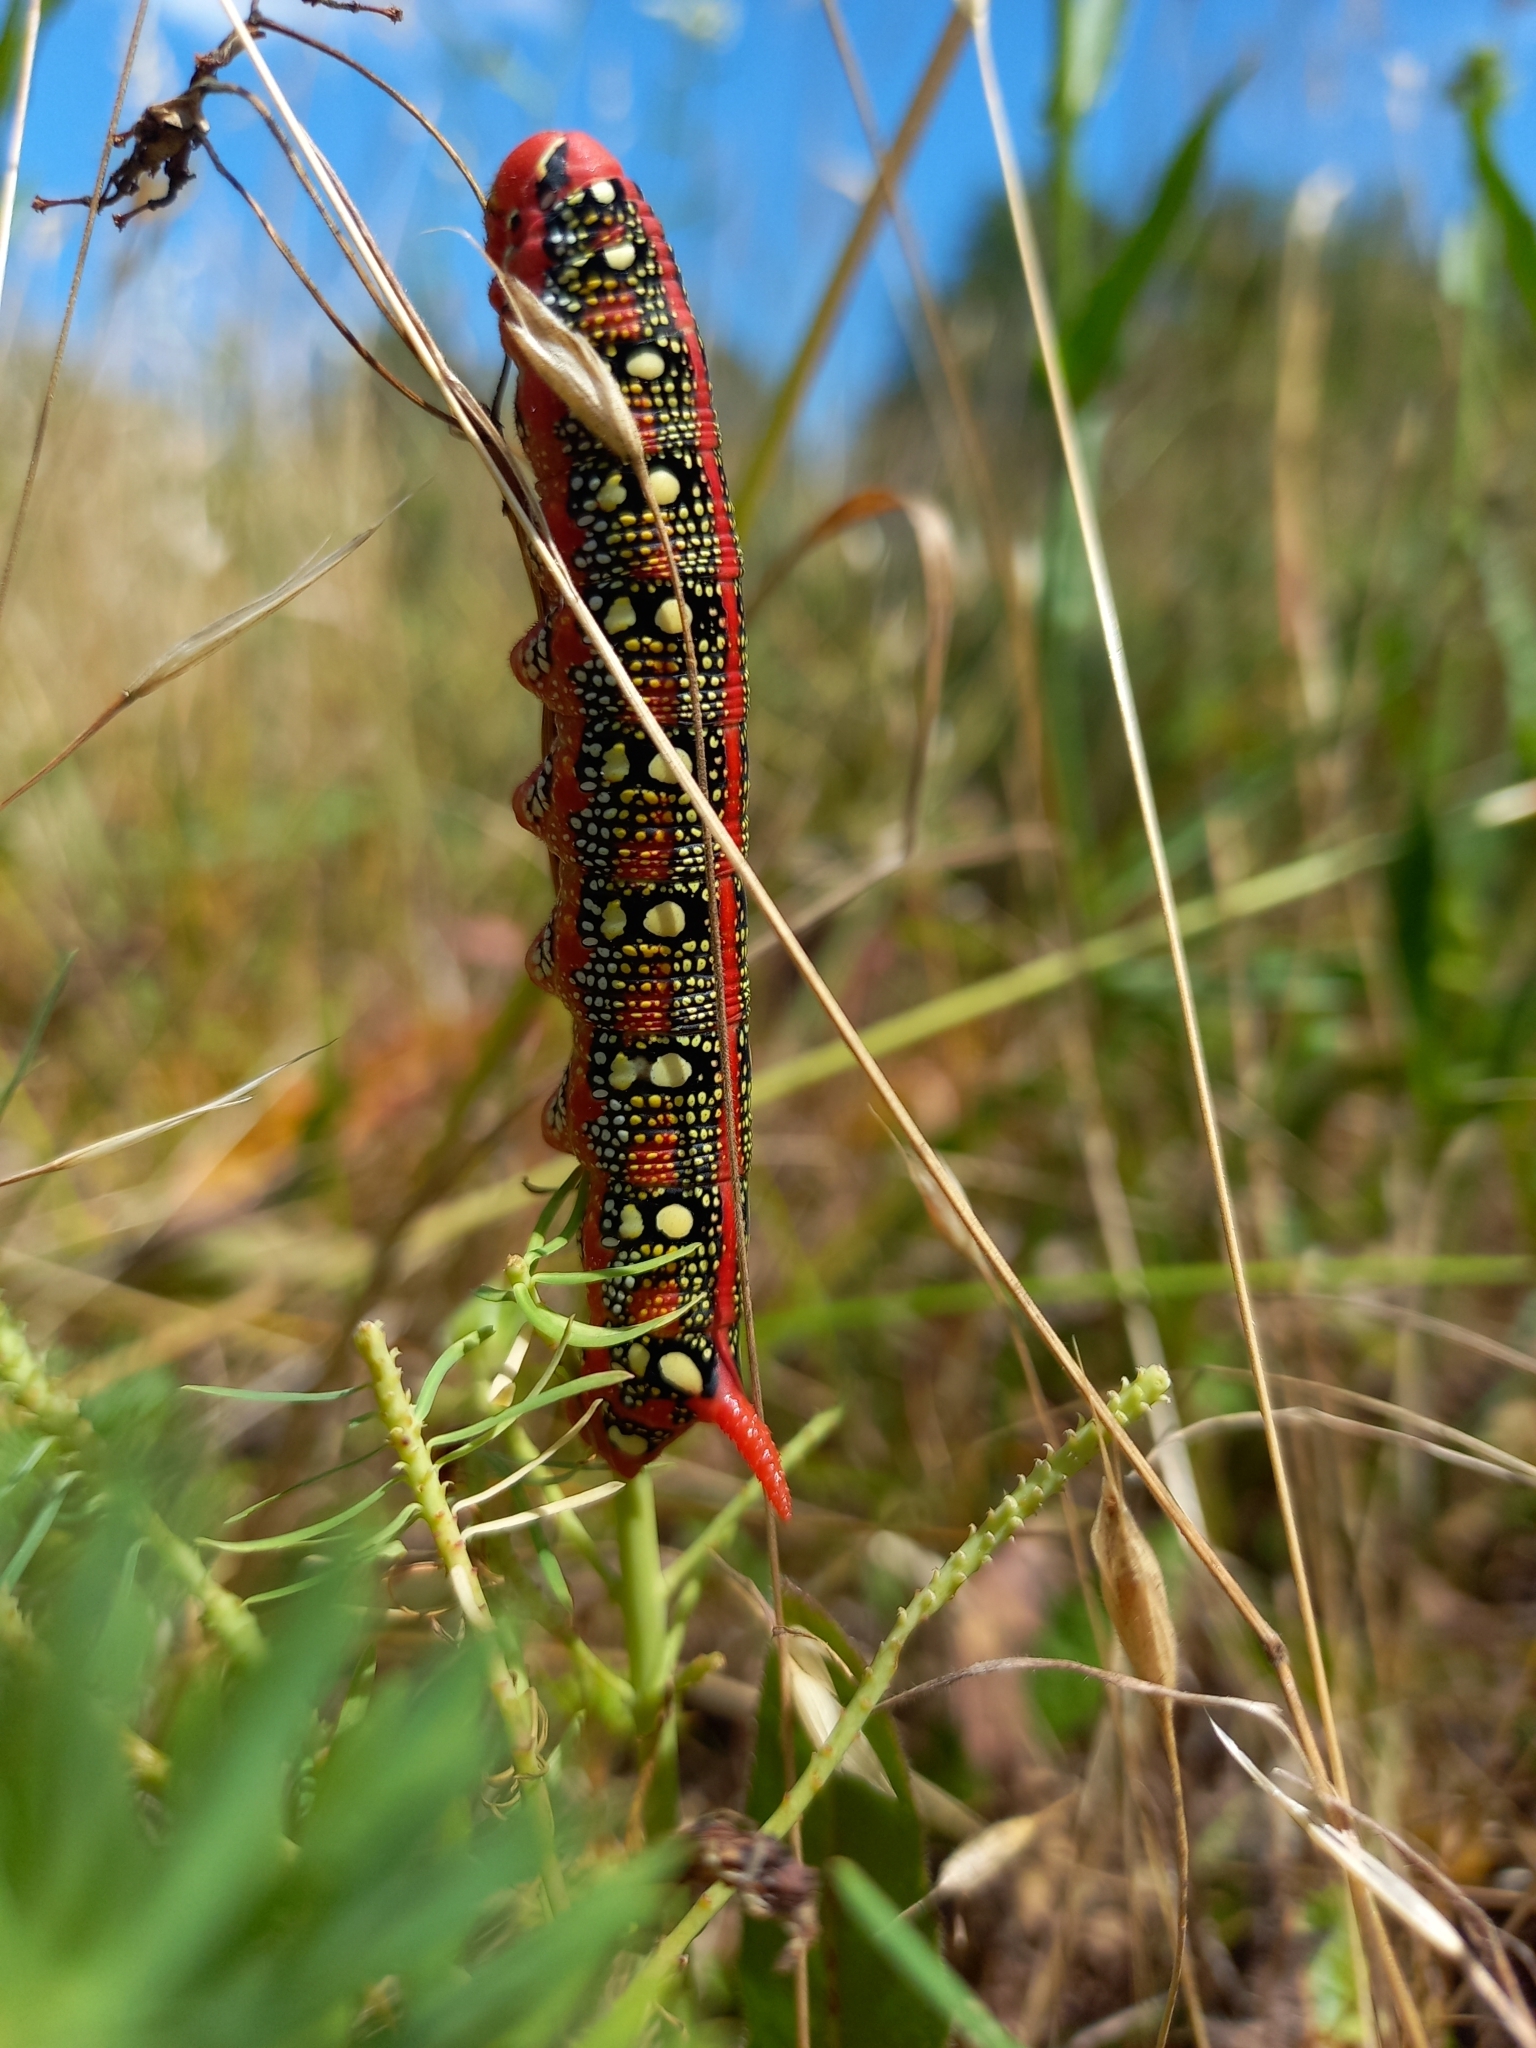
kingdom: Animalia
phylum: Arthropoda
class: Insecta
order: Lepidoptera
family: Sphingidae
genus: Hyles
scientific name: Hyles euphorbiae
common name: Spurge hawk-moth
